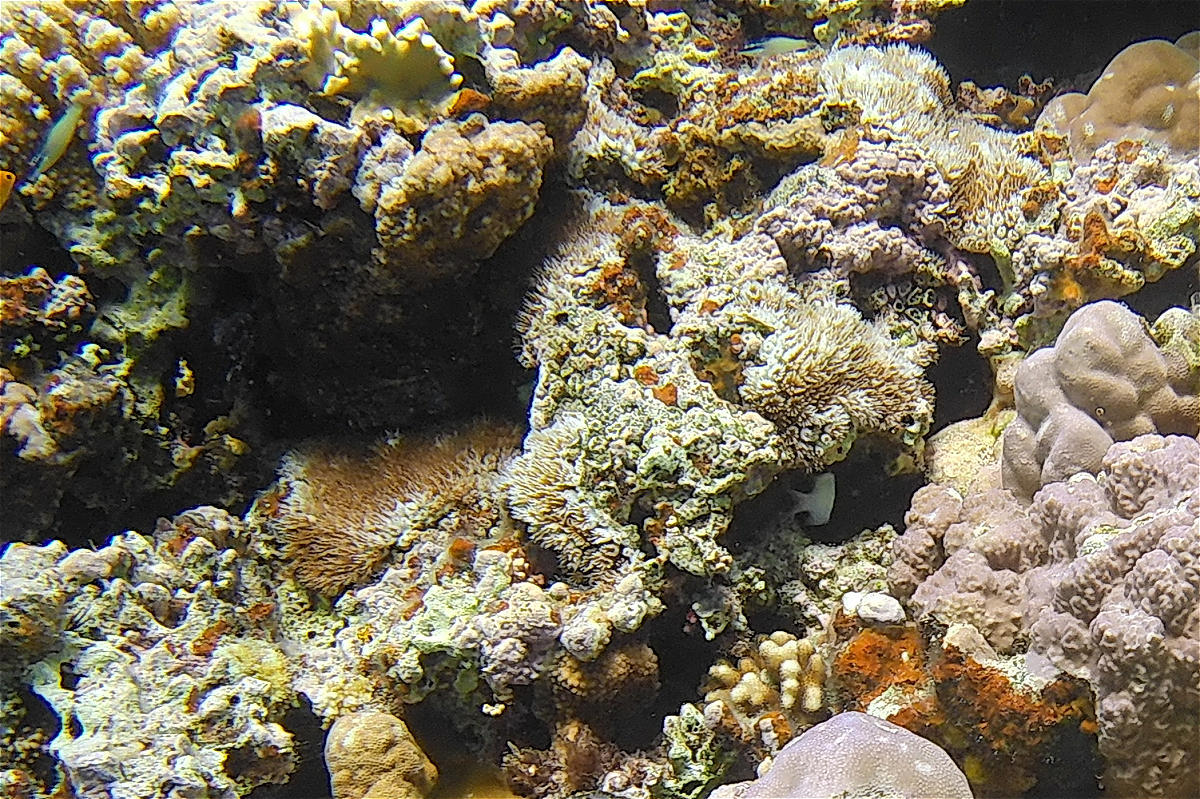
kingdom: Animalia
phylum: Cnidaria
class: Anthozoa
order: Scleractinia
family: Euphylliidae
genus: Galaxea
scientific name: Galaxea fascicularis
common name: Octopus coral
